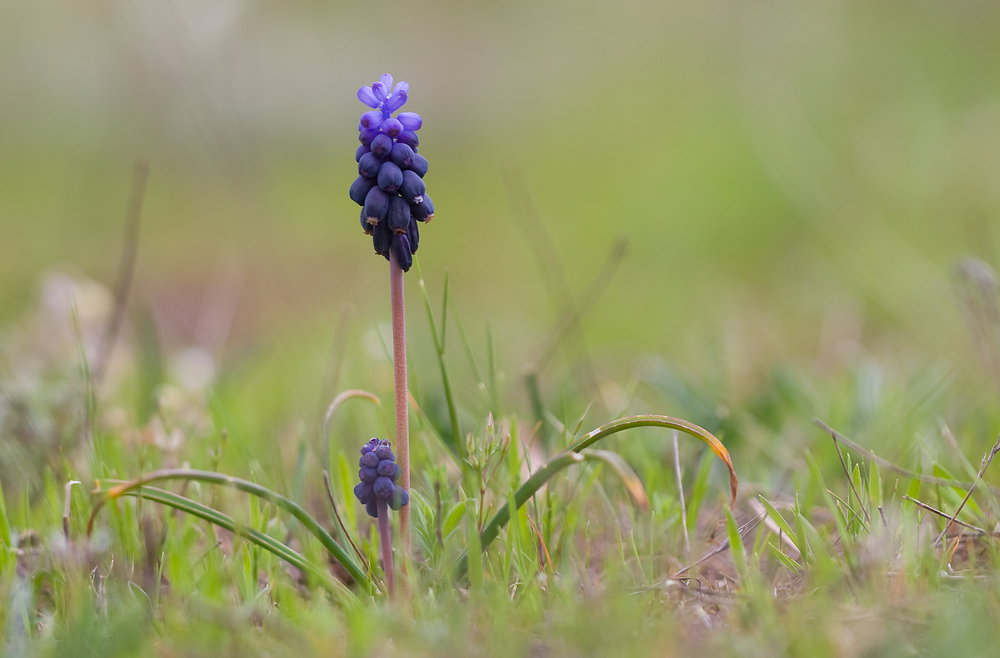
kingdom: Plantae
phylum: Tracheophyta
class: Liliopsida
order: Asparagales
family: Asparagaceae
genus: Muscari
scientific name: Muscari neglectum
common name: Grape-hyacinth
